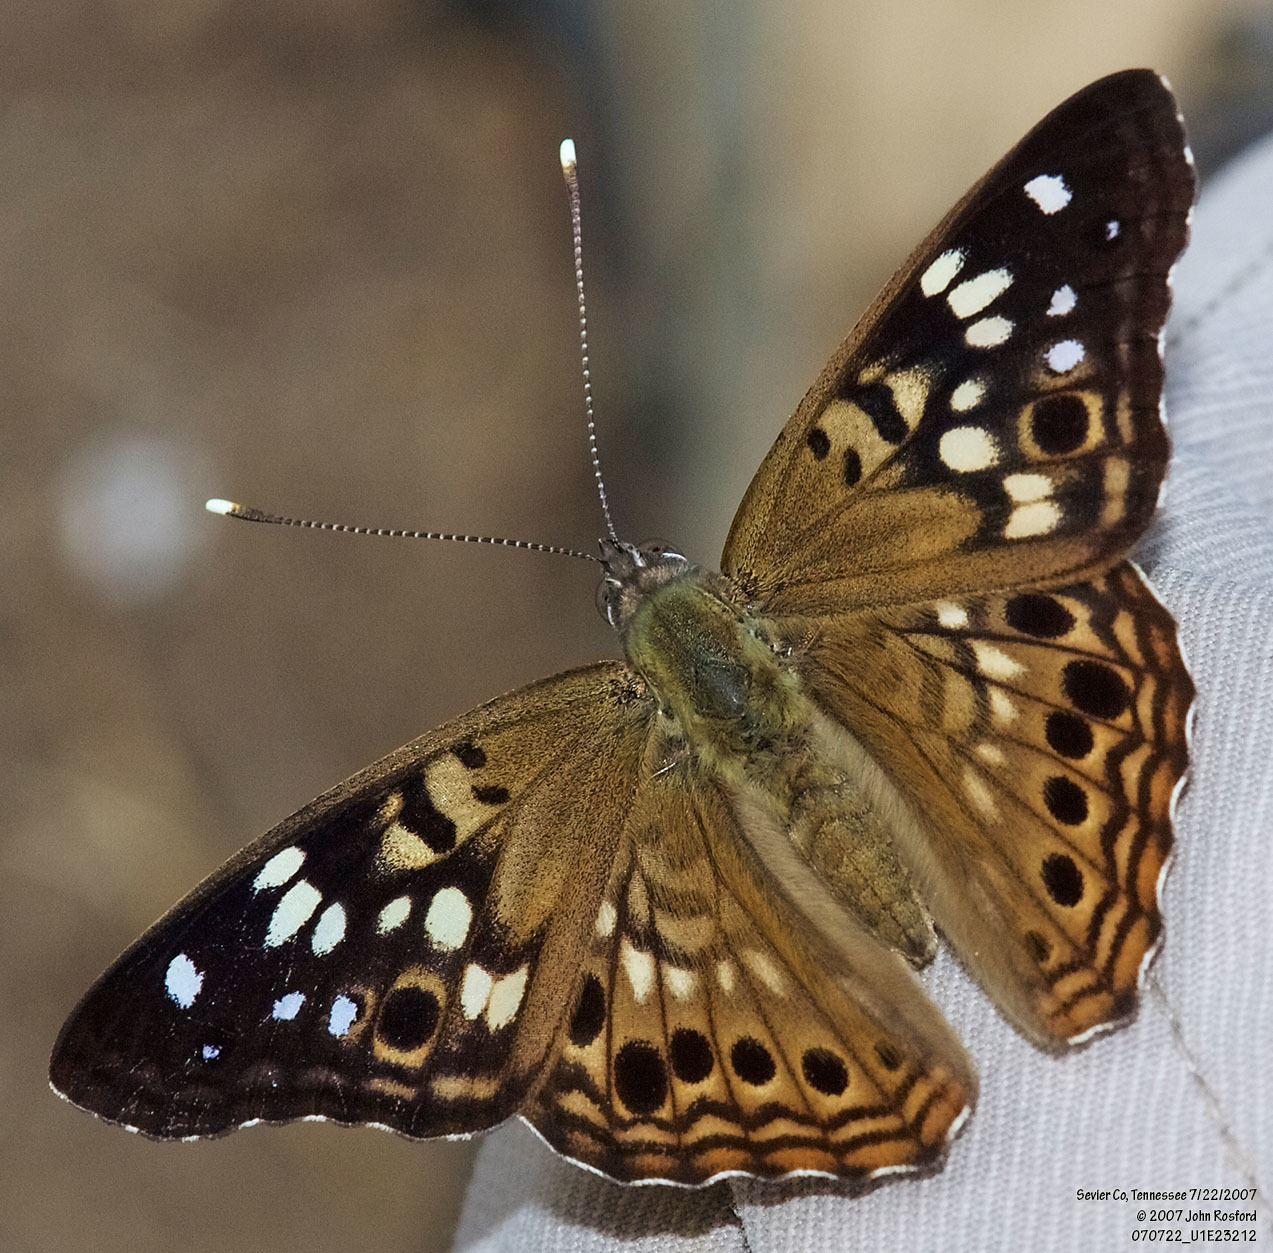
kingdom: Animalia
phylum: Arthropoda
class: Insecta
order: Lepidoptera
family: Nymphalidae
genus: Asterocampa
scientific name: Asterocampa celtis
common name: Hackberry emperor
